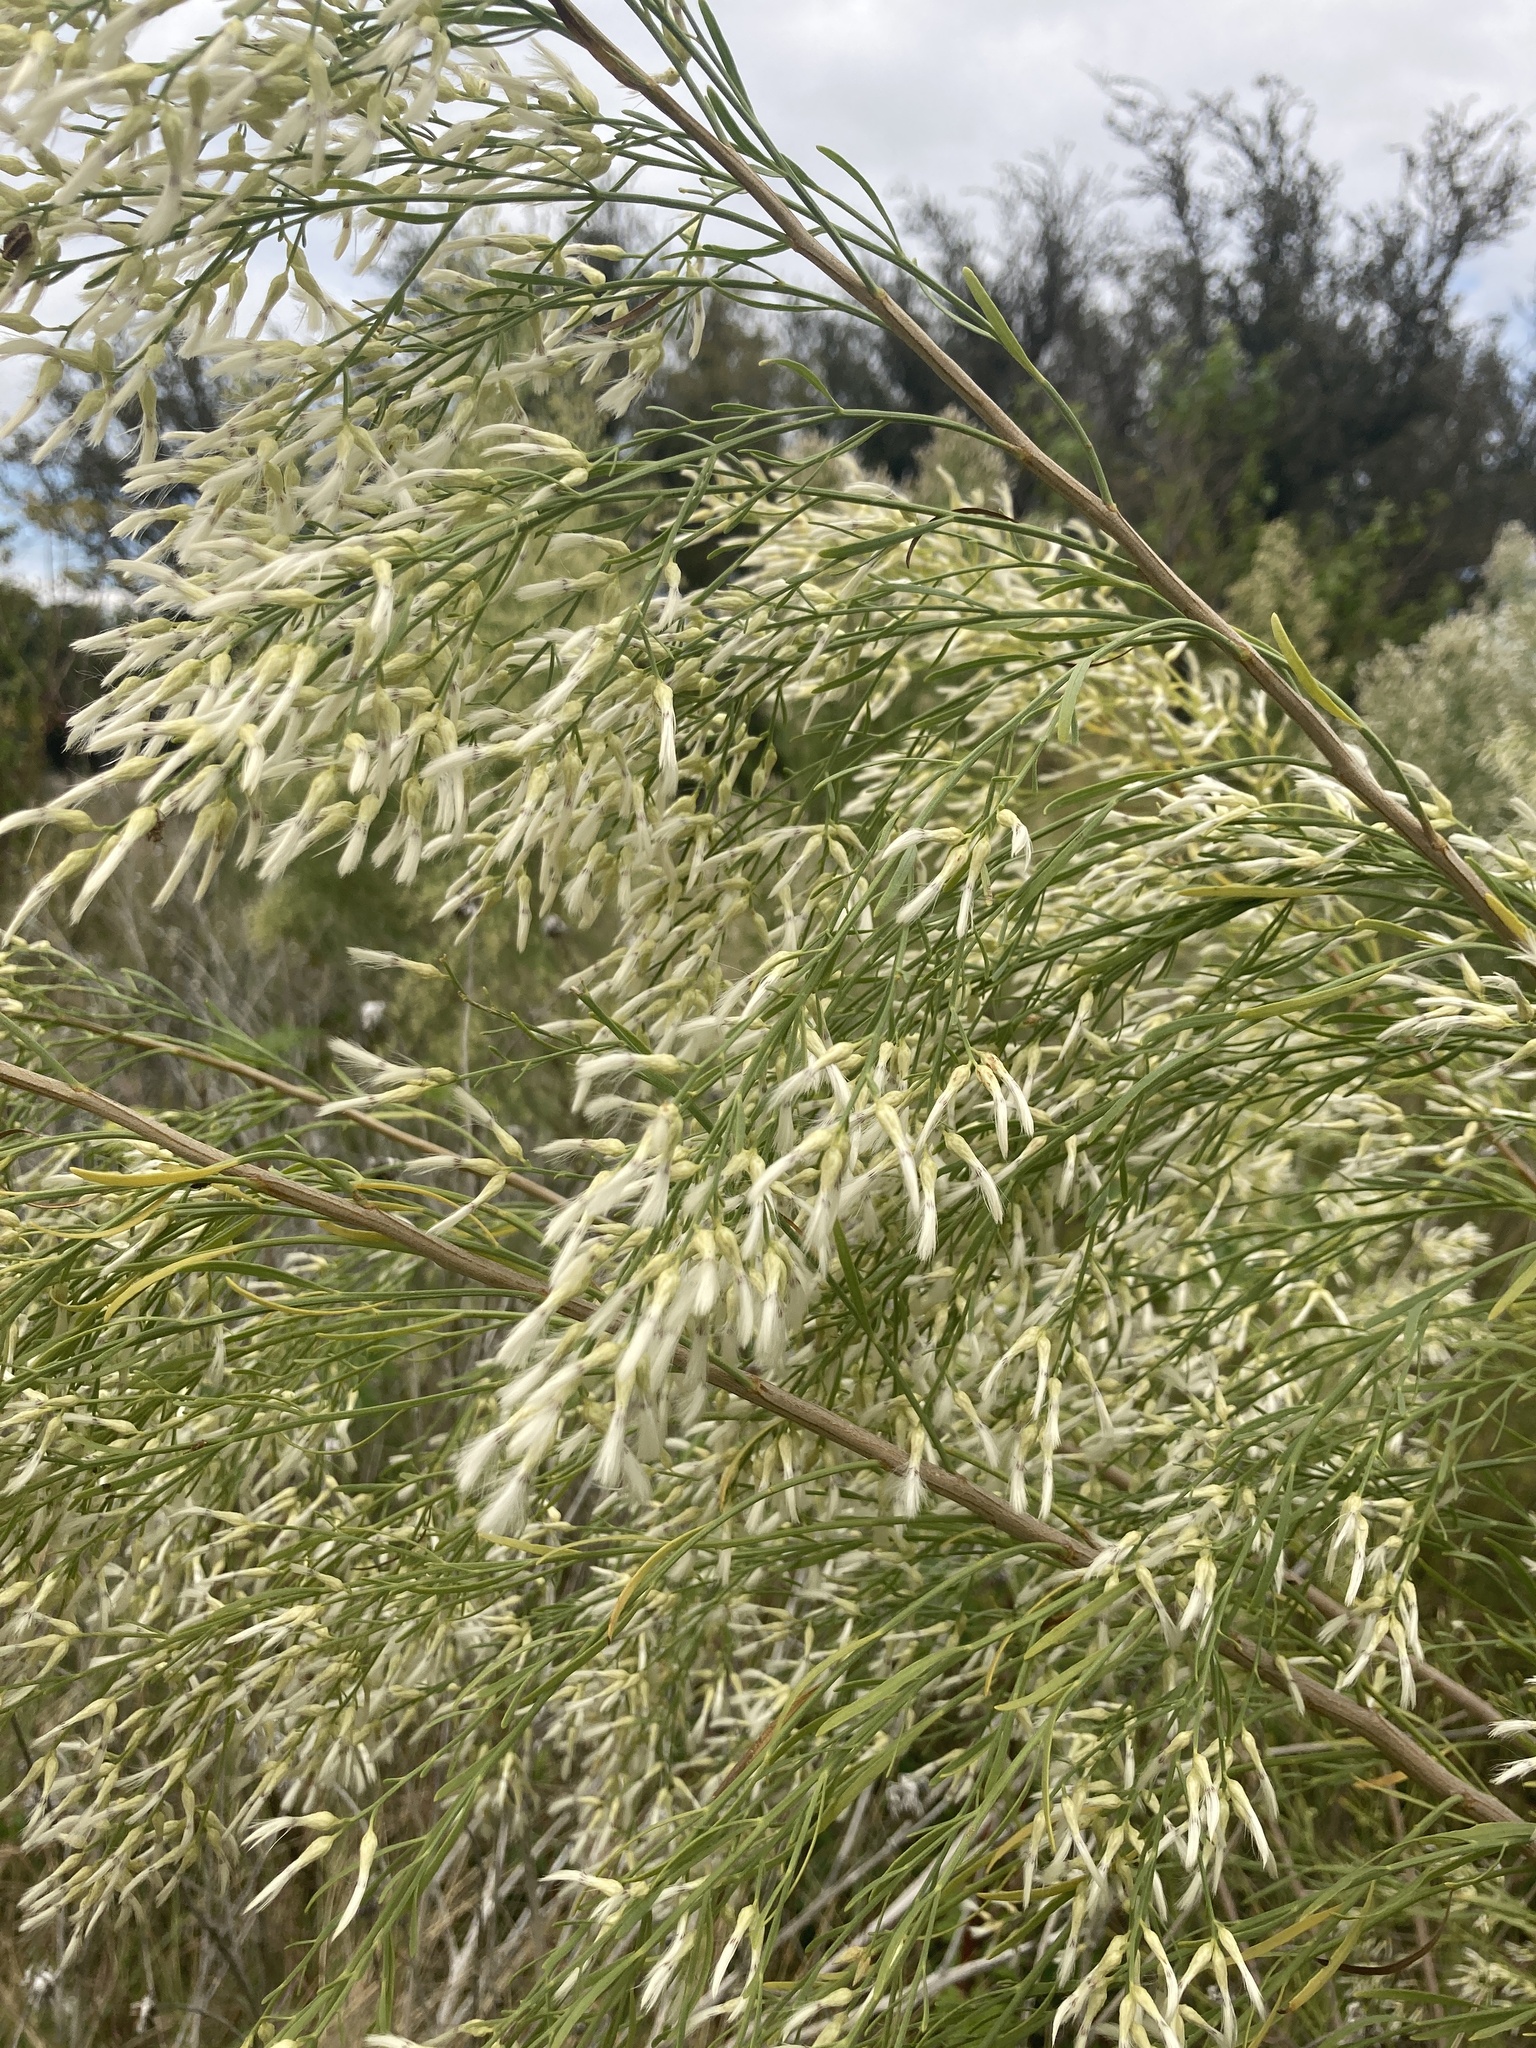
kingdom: Plantae
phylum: Tracheophyta
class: Magnoliopsida
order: Asterales
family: Asteraceae
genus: Baccharis
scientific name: Baccharis neglecta
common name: Roosevelt-weed
